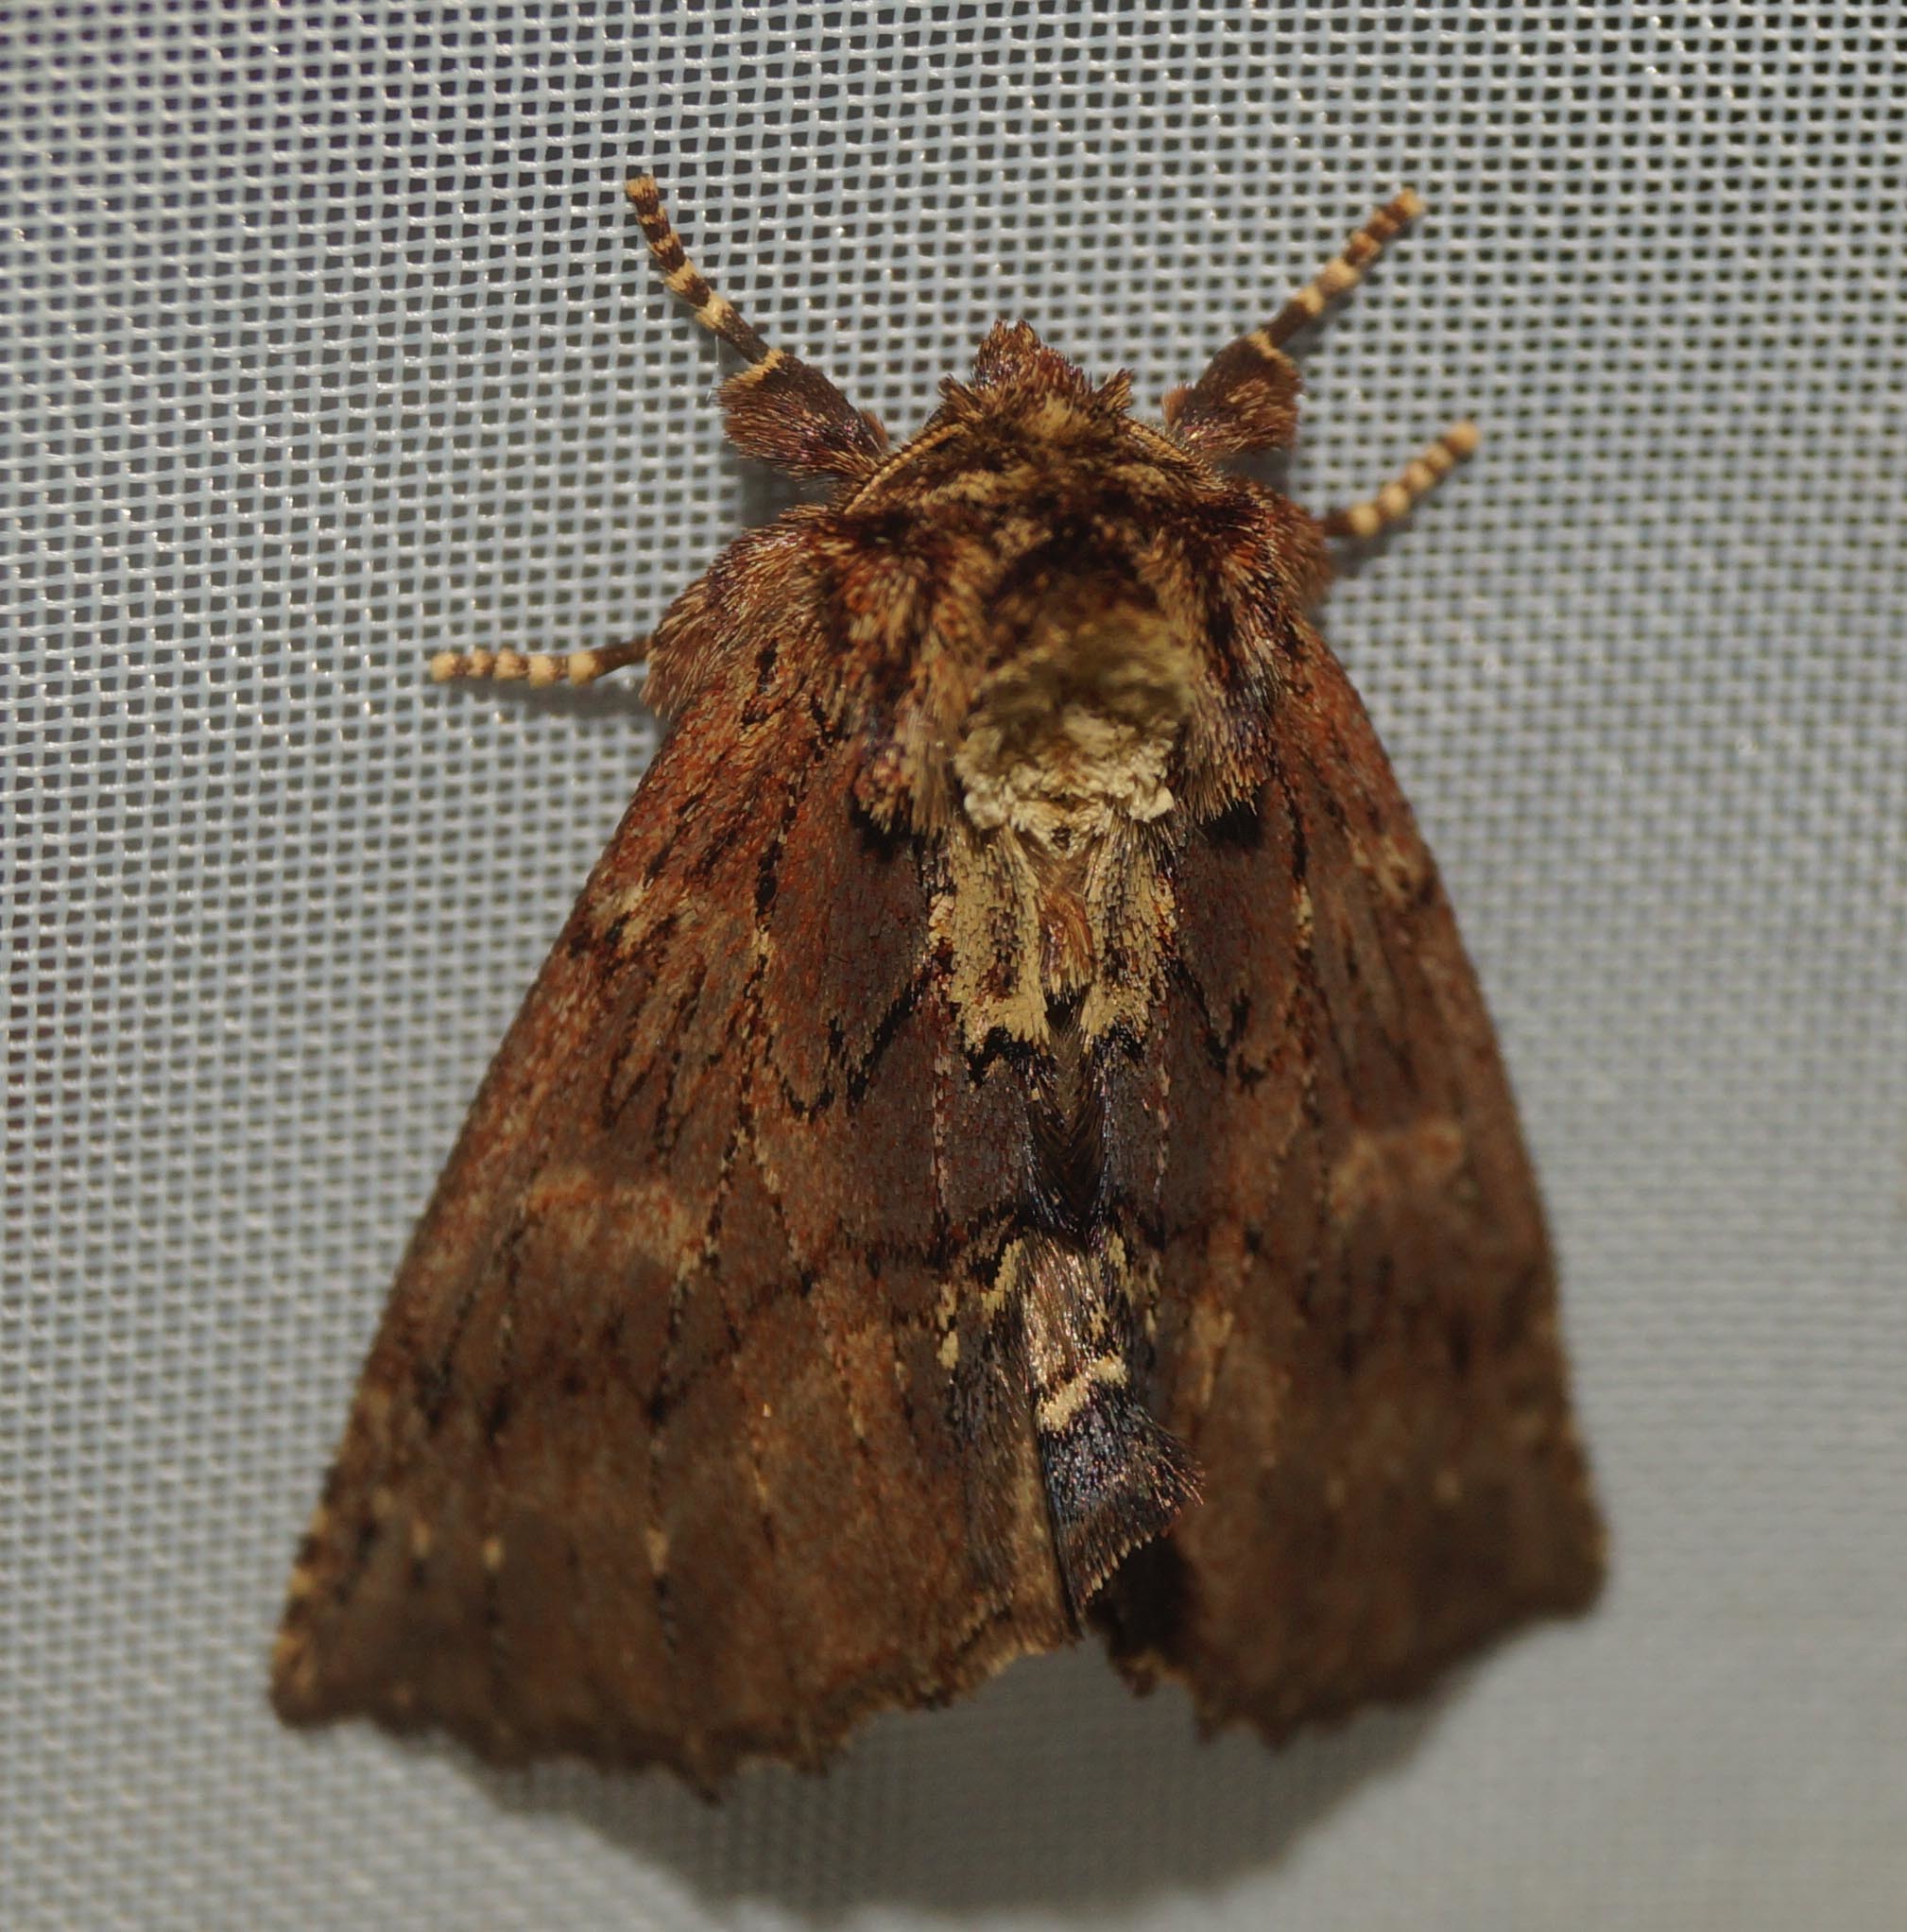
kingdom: Animalia
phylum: Arthropoda
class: Insecta
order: Lepidoptera
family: Notodontidae
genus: Ptilodon
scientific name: Ptilodon capucina
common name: Coxcomb prominent
